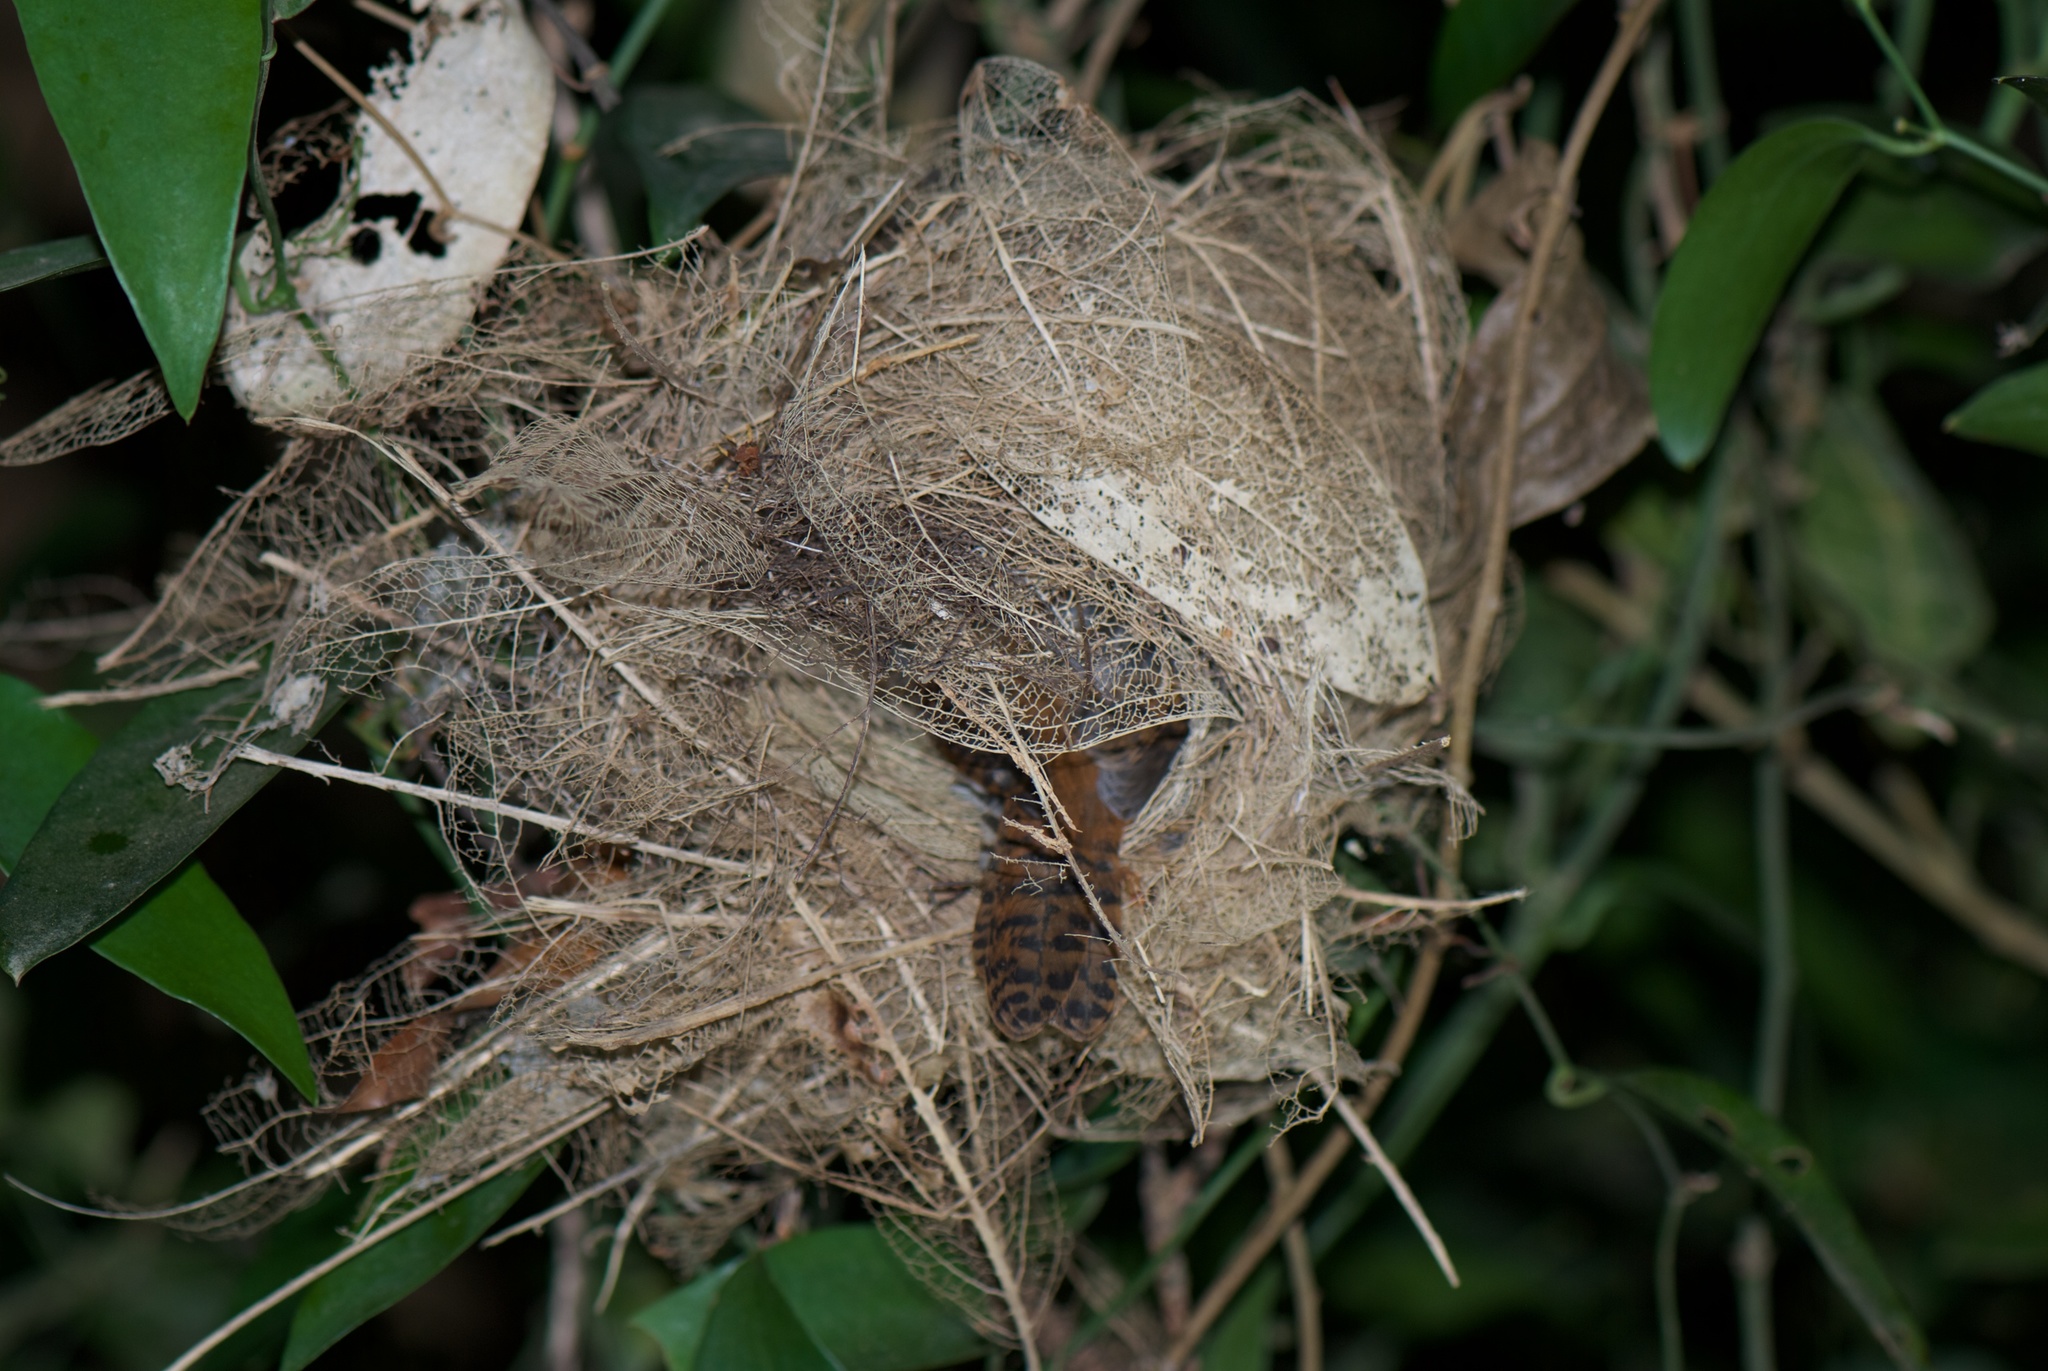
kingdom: Animalia
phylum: Chordata
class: Aves
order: Passeriformes
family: Thamnophilidae
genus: Thamnophilus
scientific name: Thamnophilus doliatus
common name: Barred antshrike
